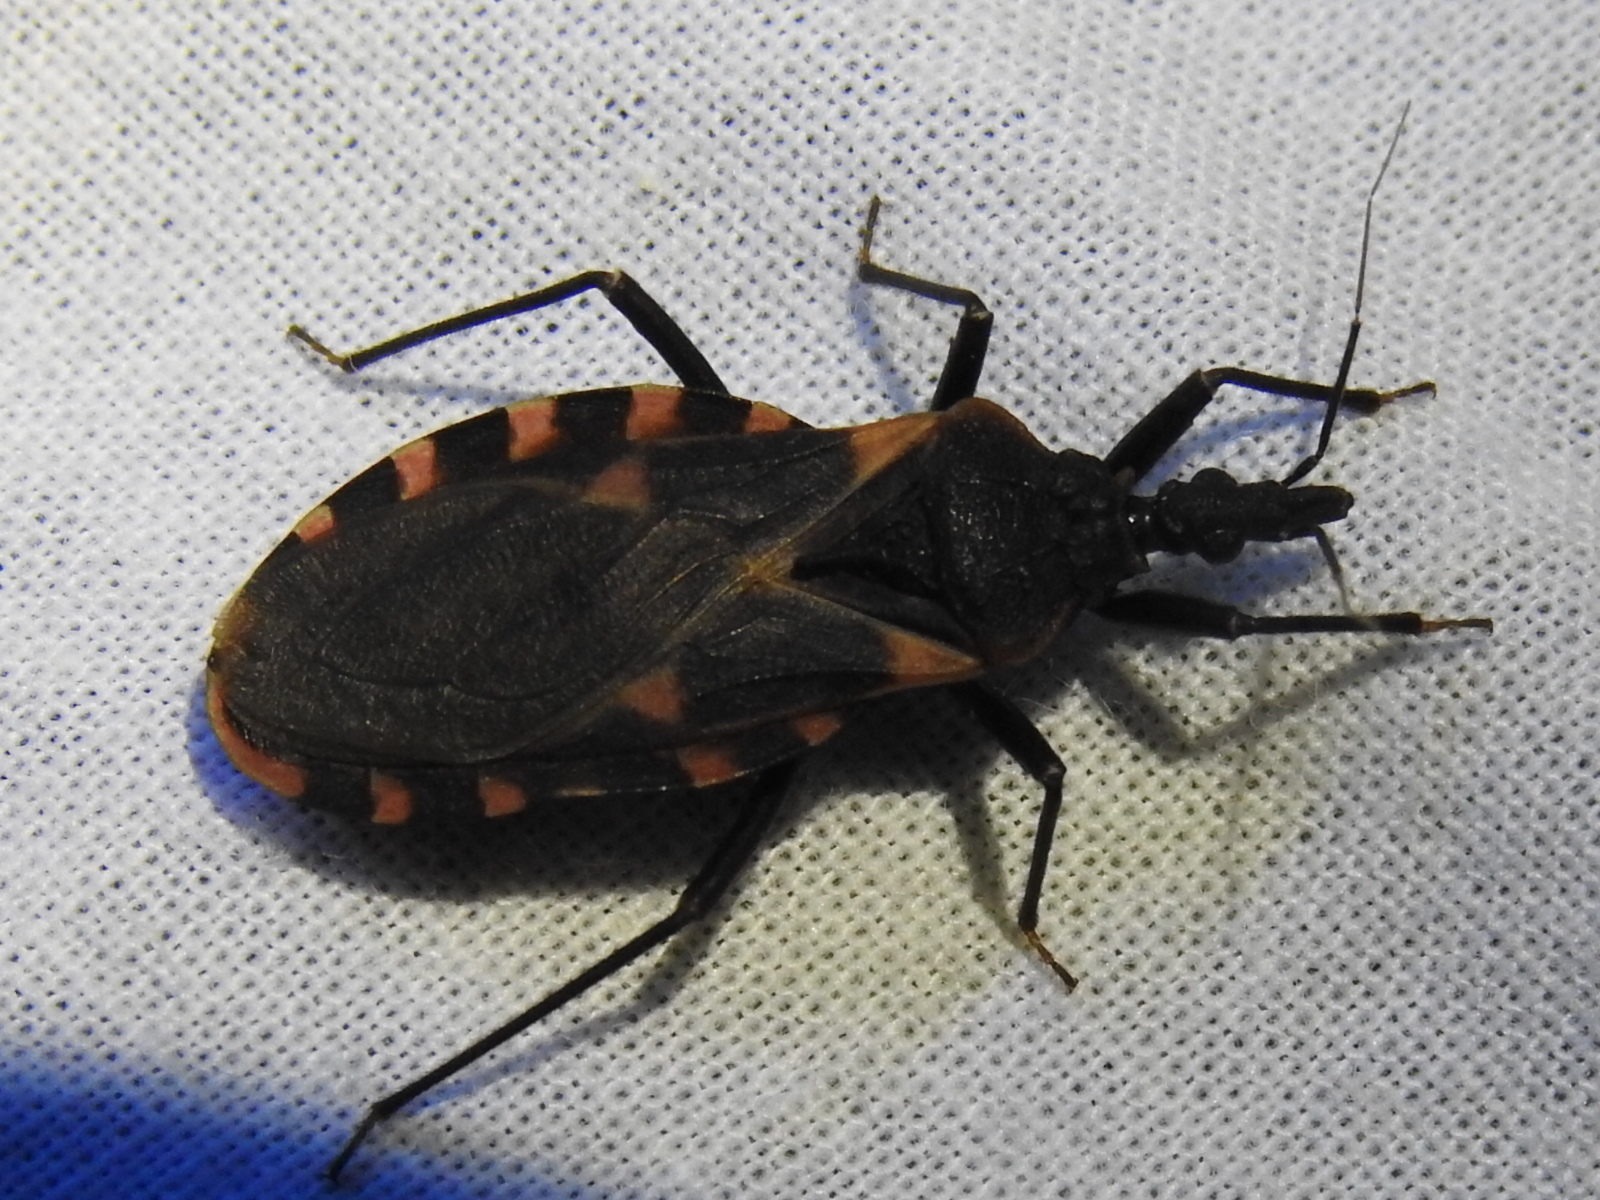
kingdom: Animalia
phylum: Arthropoda
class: Insecta
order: Hemiptera
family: Reduviidae
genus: Triatoma
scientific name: Triatoma sanguisuga
